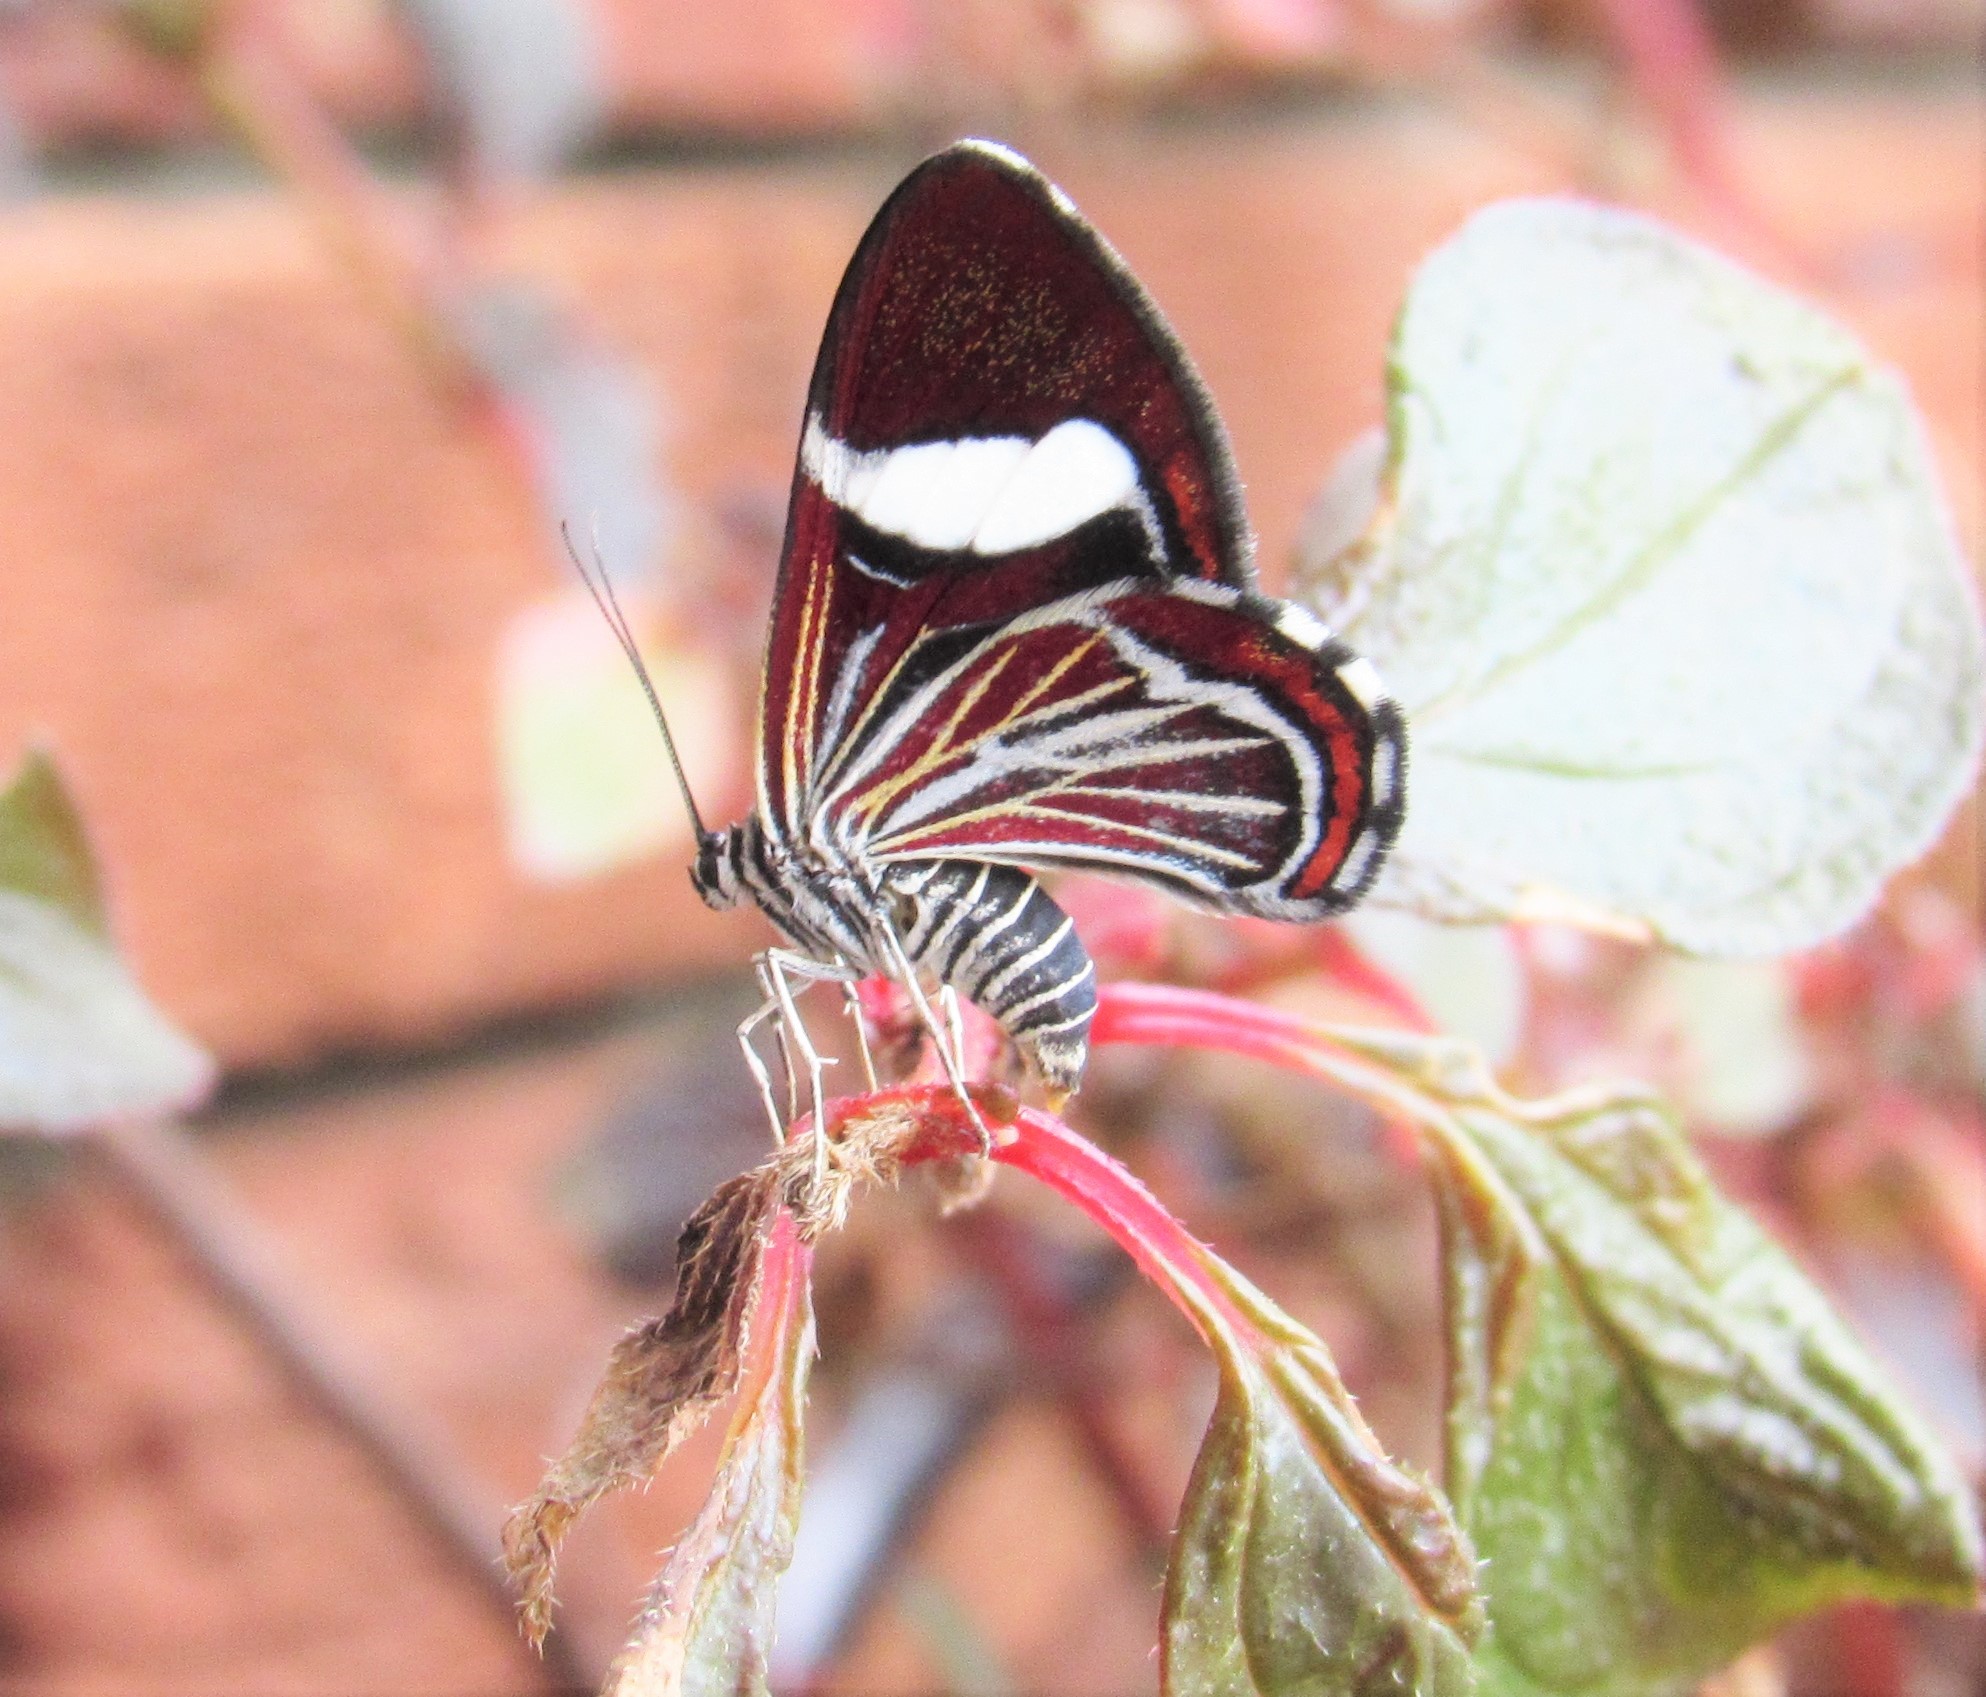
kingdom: Animalia
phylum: Arthropoda
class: Insecta
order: Lepidoptera
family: Geometridae
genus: Erateina
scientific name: Erateina siliquata
